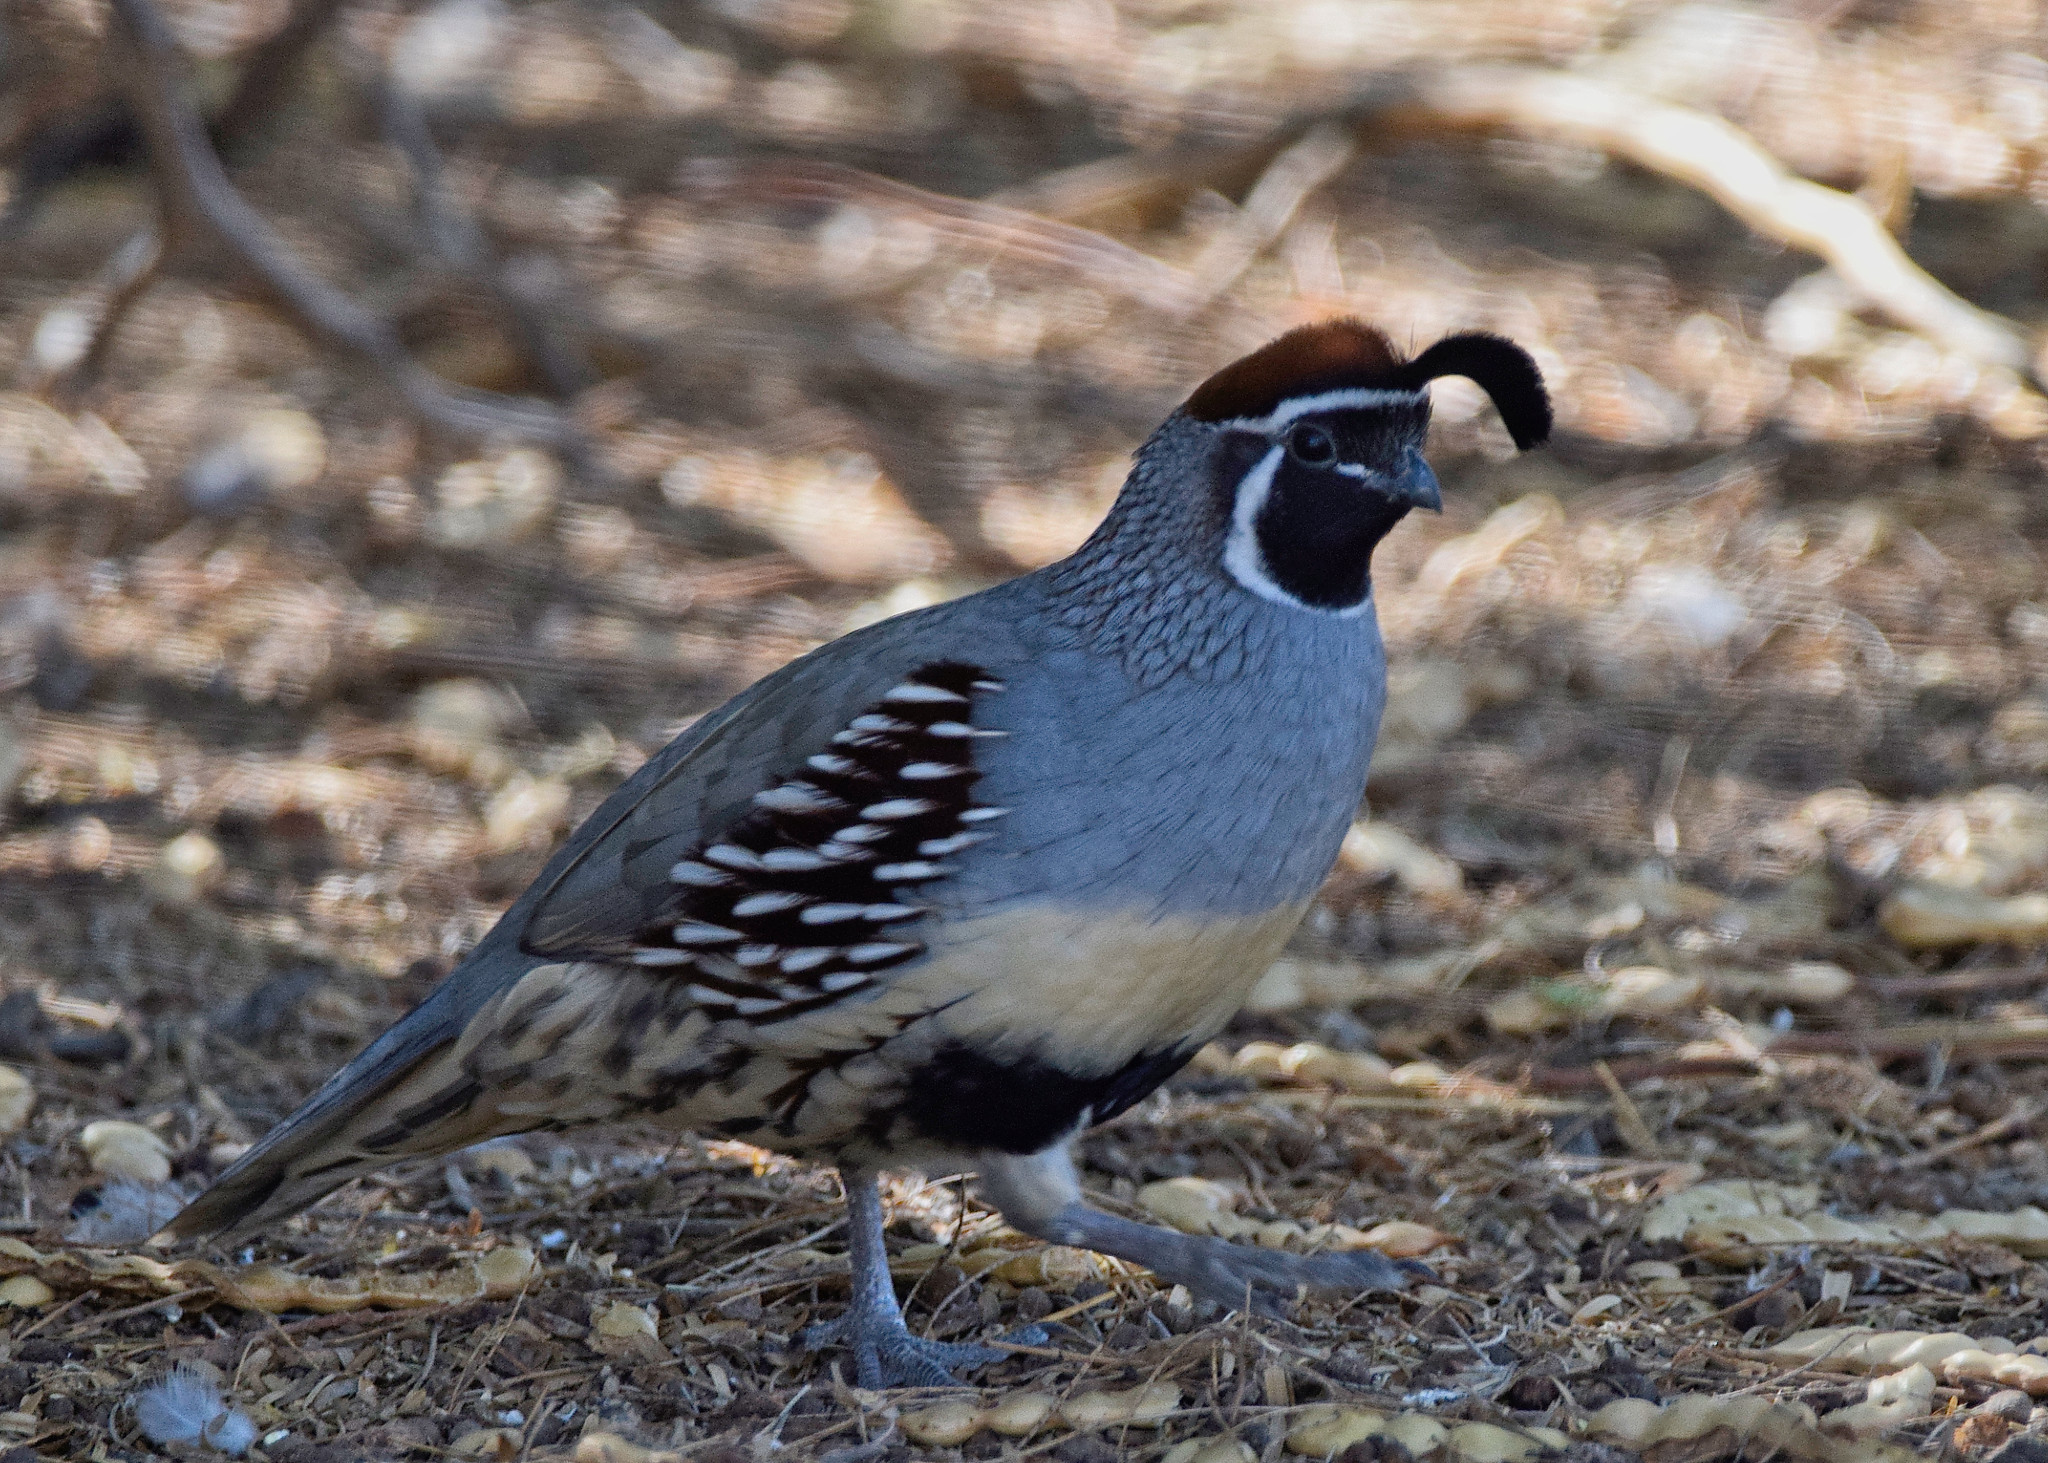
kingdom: Animalia
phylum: Chordata
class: Aves
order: Galliformes
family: Odontophoridae
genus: Callipepla
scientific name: Callipepla gambelii
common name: Gambel's quail
